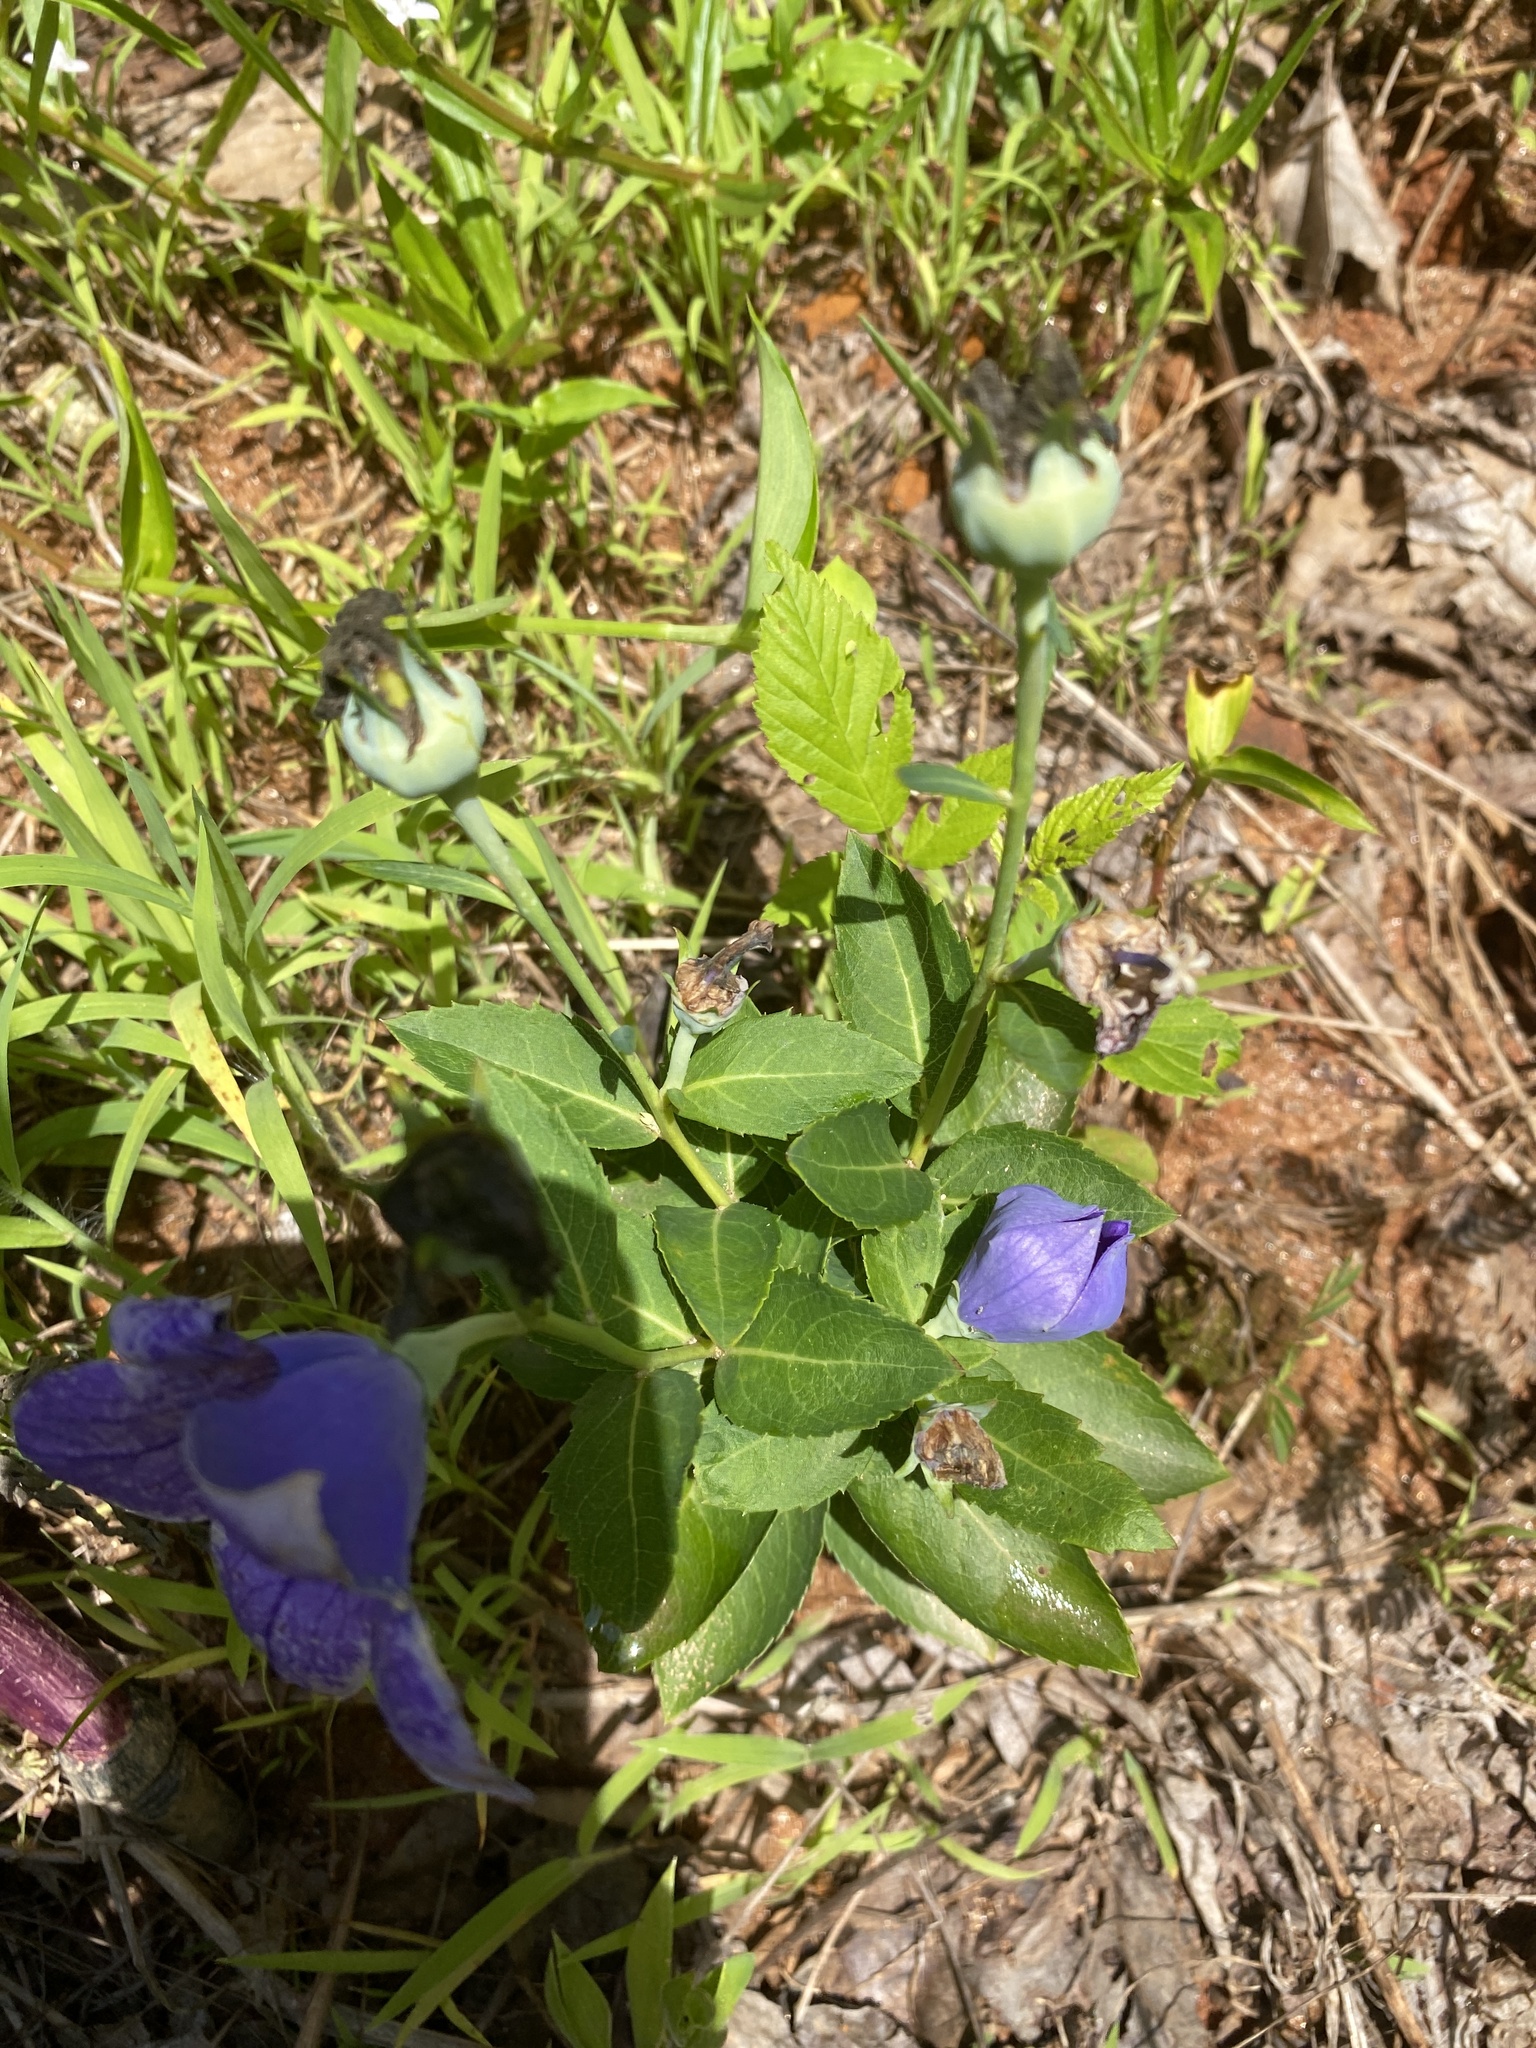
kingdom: Plantae
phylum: Tracheophyta
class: Magnoliopsida
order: Asterales
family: Campanulaceae
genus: Platycodon
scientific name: Platycodon grandiflorus
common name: Balloon-flower
